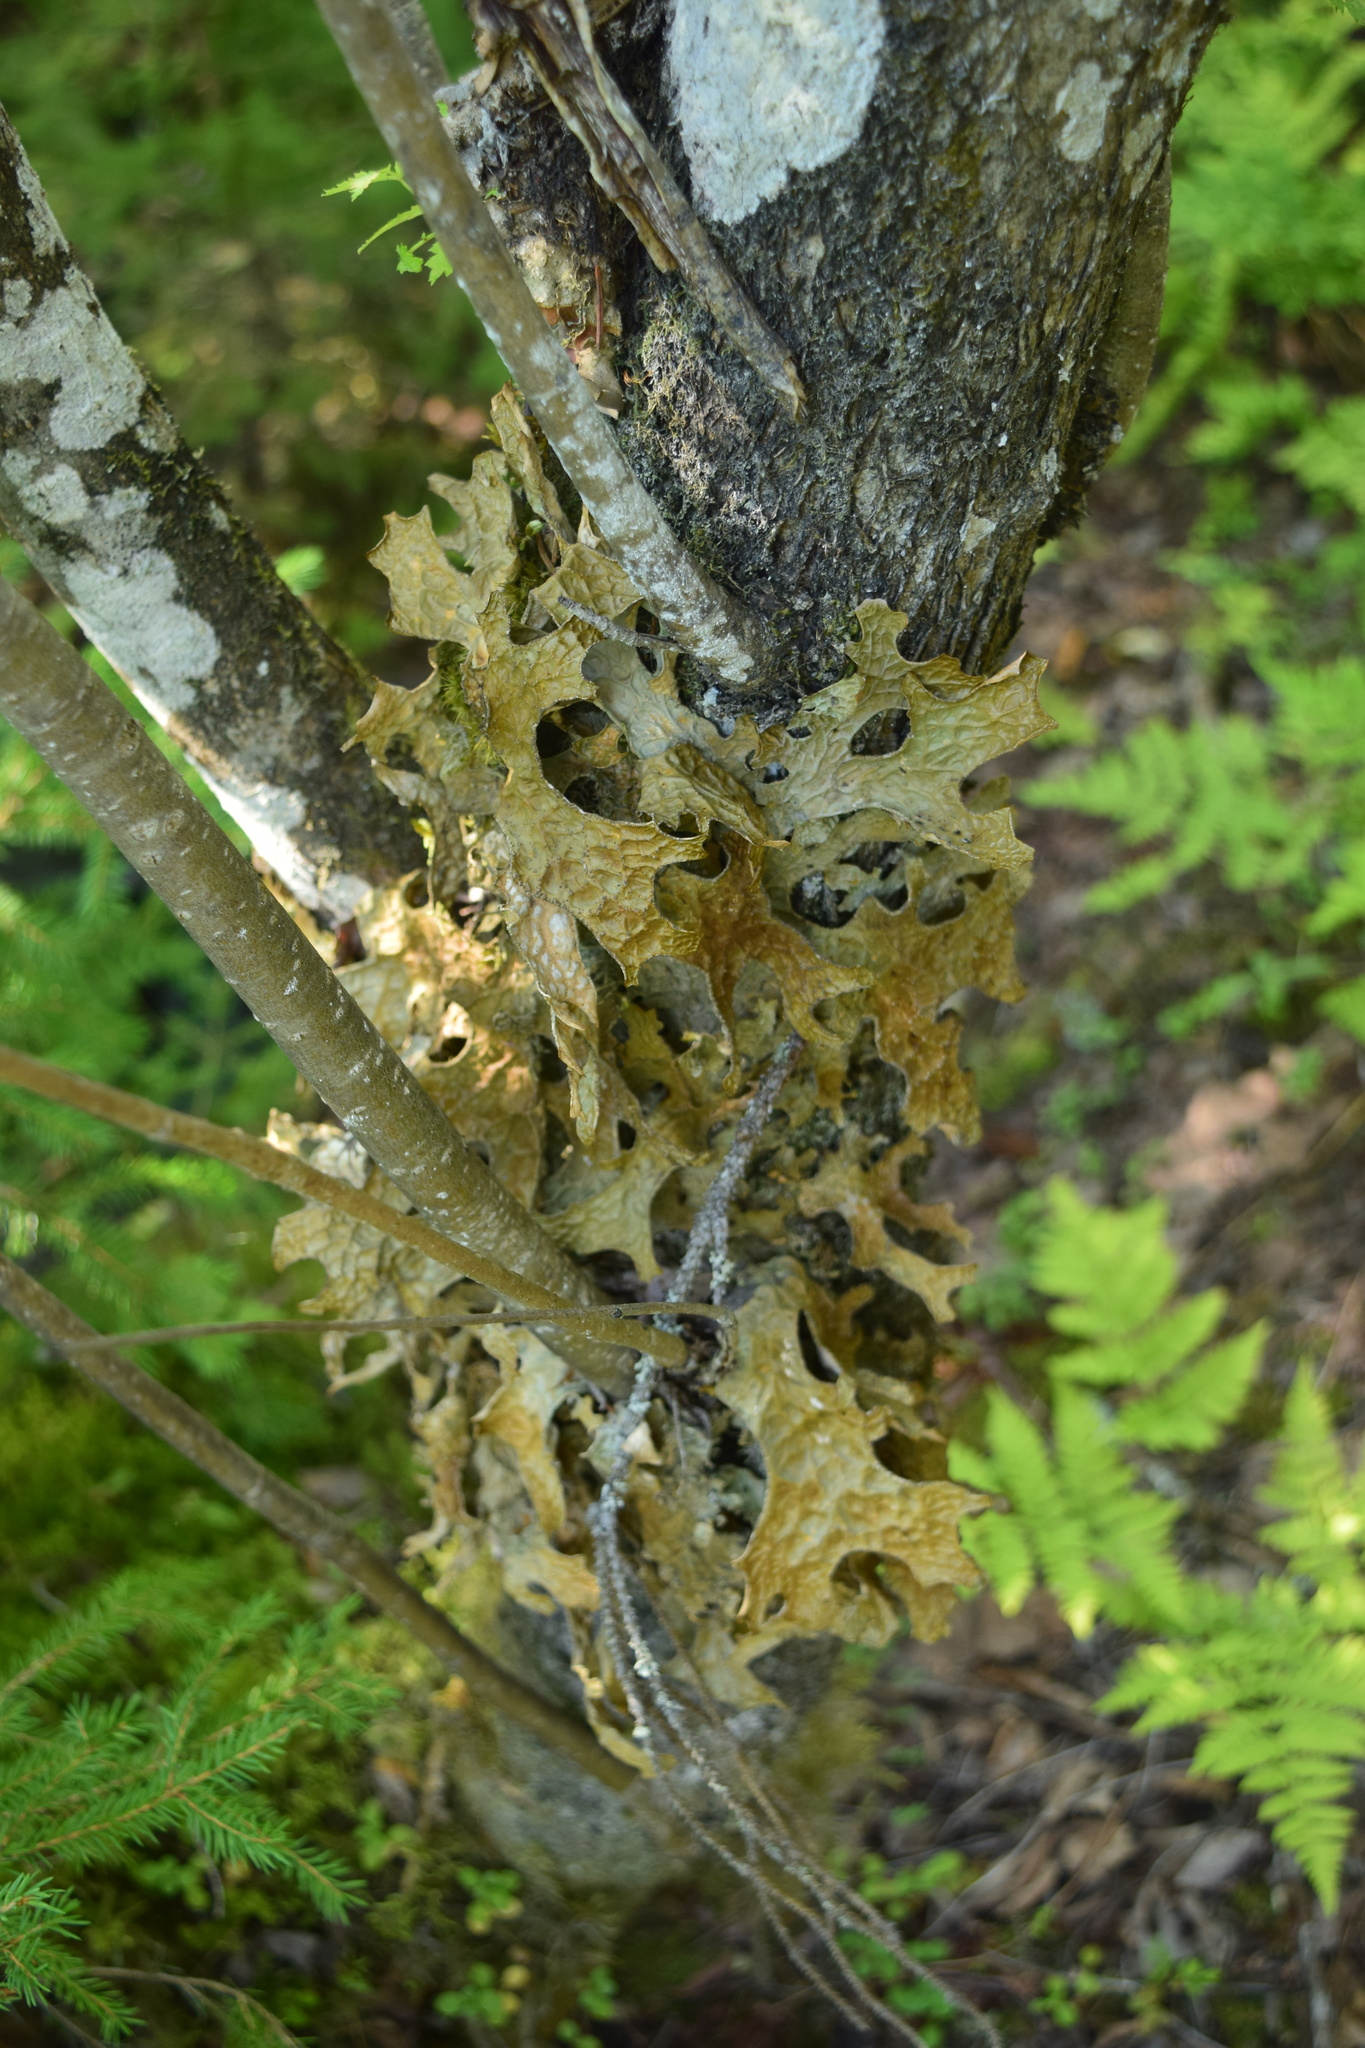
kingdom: Fungi
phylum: Ascomycota
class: Lecanoromycetes
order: Peltigerales
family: Lobariaceae
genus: Lobaria
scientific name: Lobaria pulmonaria
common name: Lungwort
